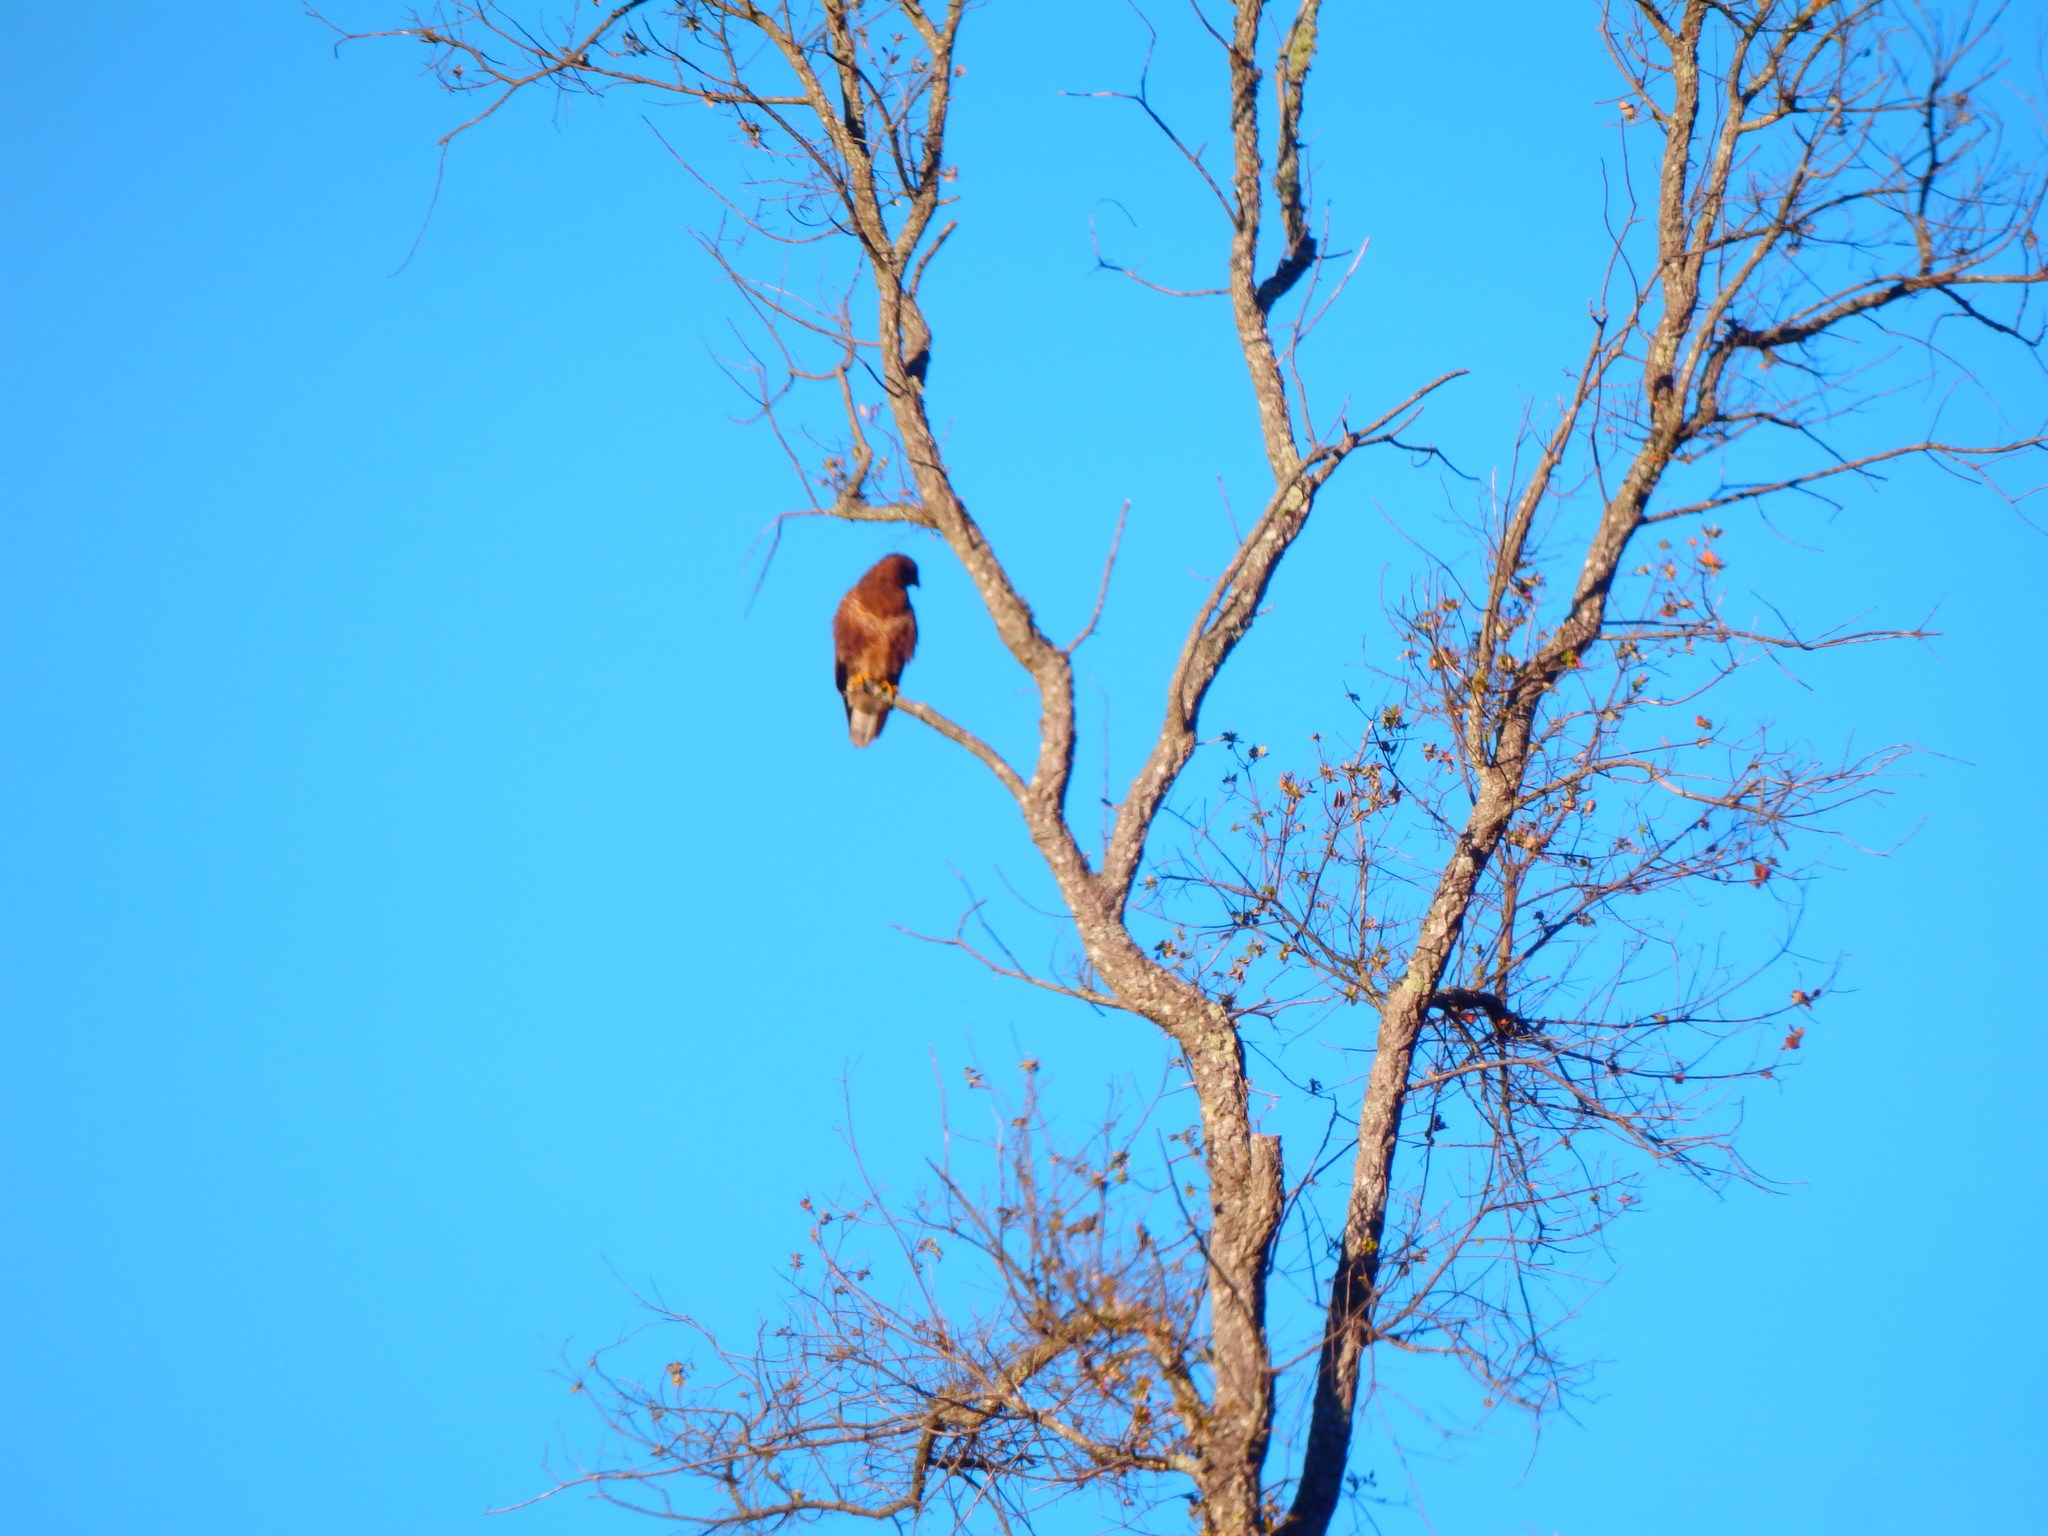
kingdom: Animalia
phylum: Chordata
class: Aves
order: Accipitriformes
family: Accipitridae
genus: Buteo
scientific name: Buteo buteo
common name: Common buzzard
